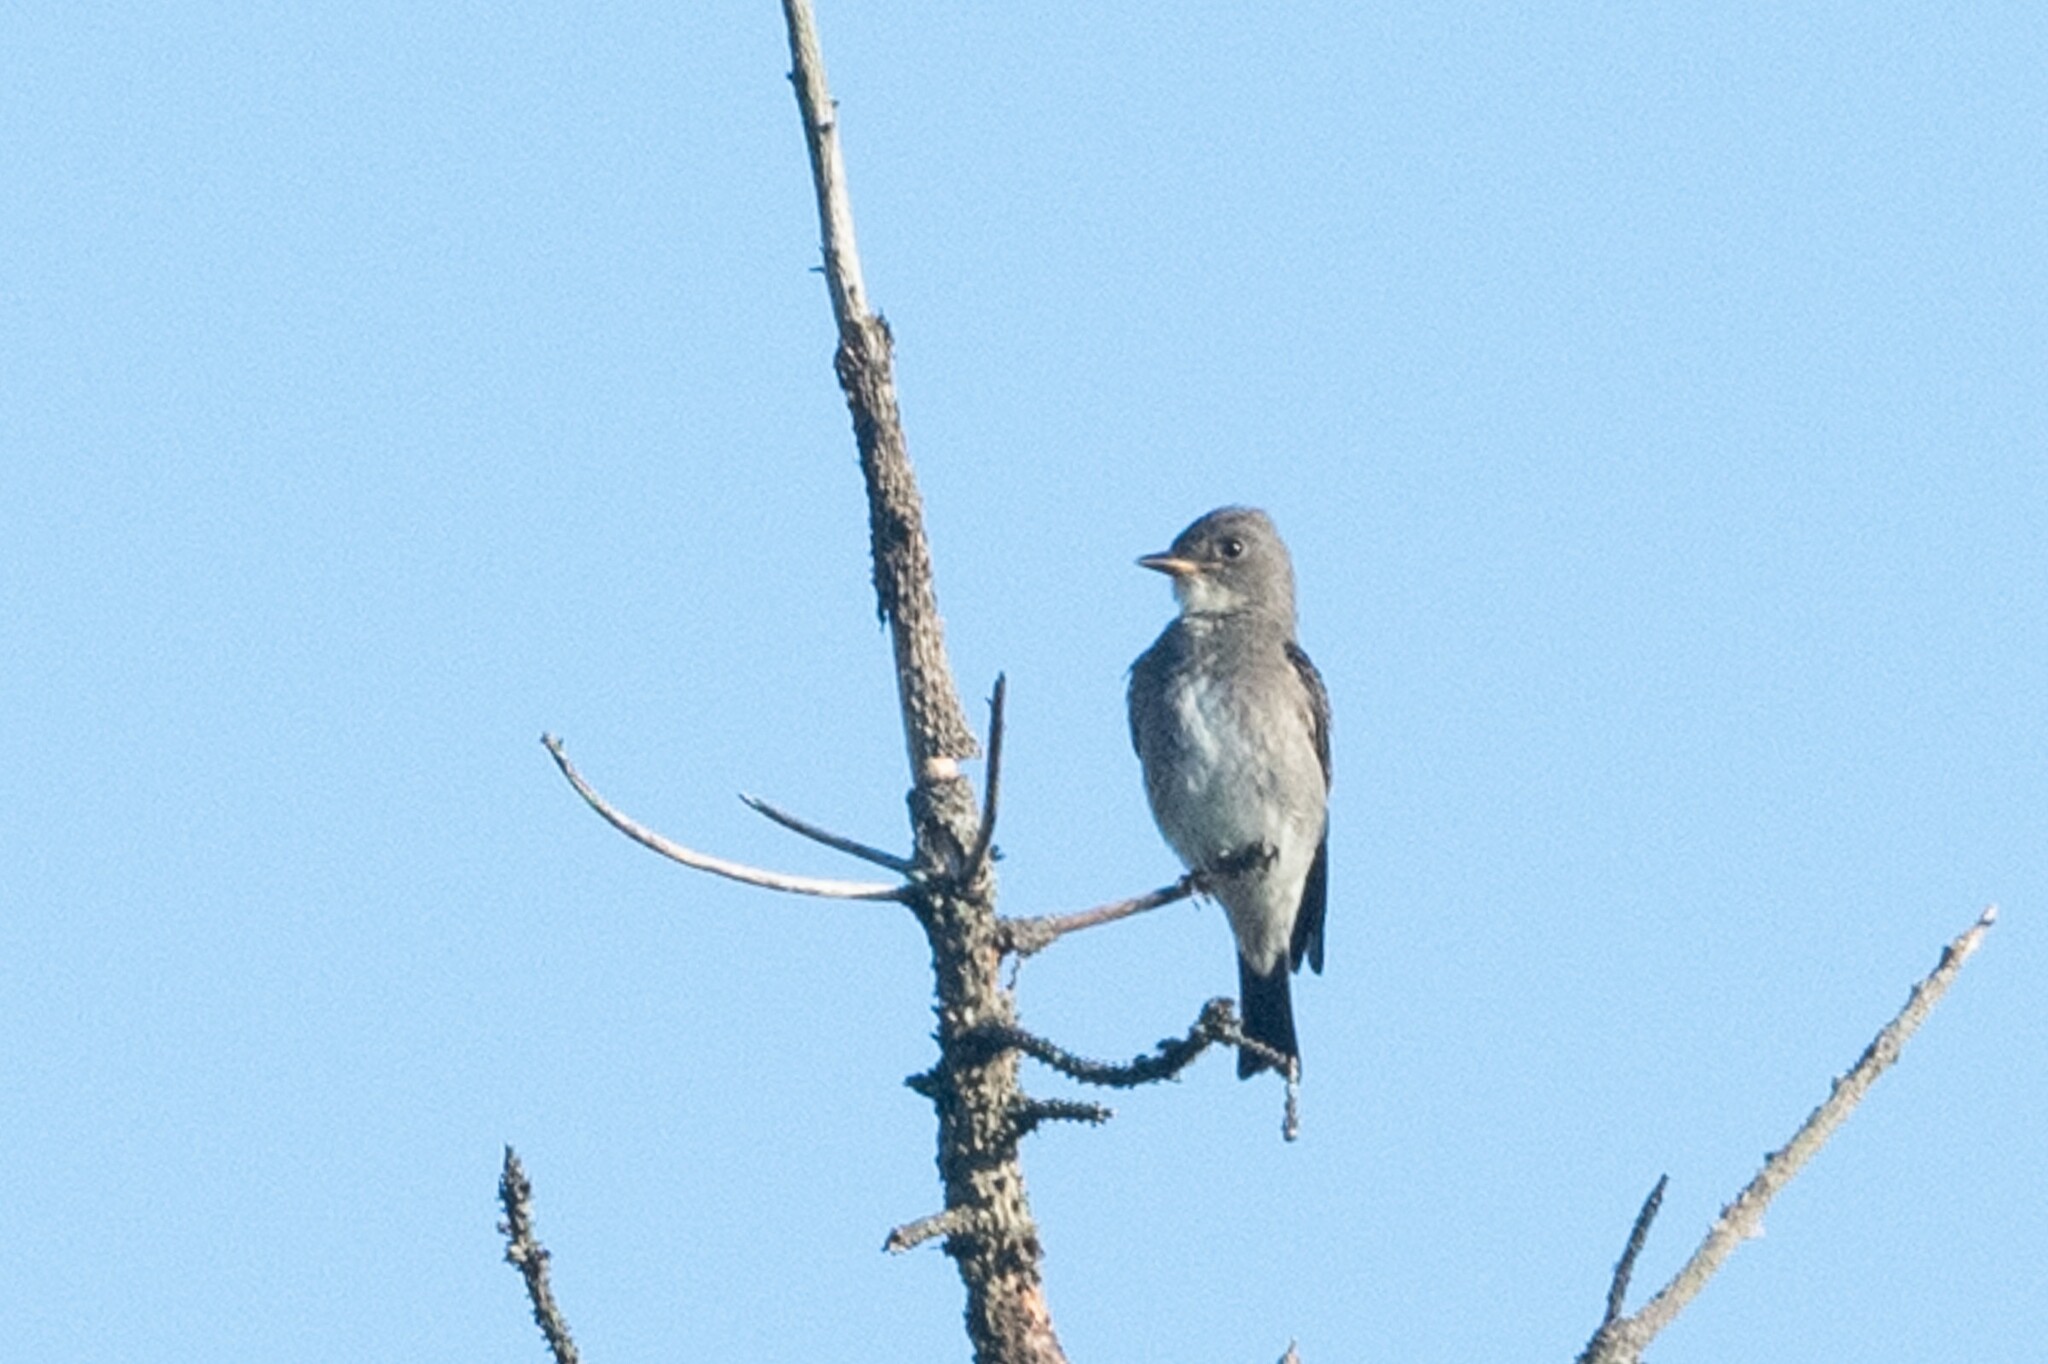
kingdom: Animalia
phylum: Chordata
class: Aves
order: Passeriformes
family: Tyrannidae
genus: Contopus
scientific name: Contopus cooperi
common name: Olive-sided flycatcher
